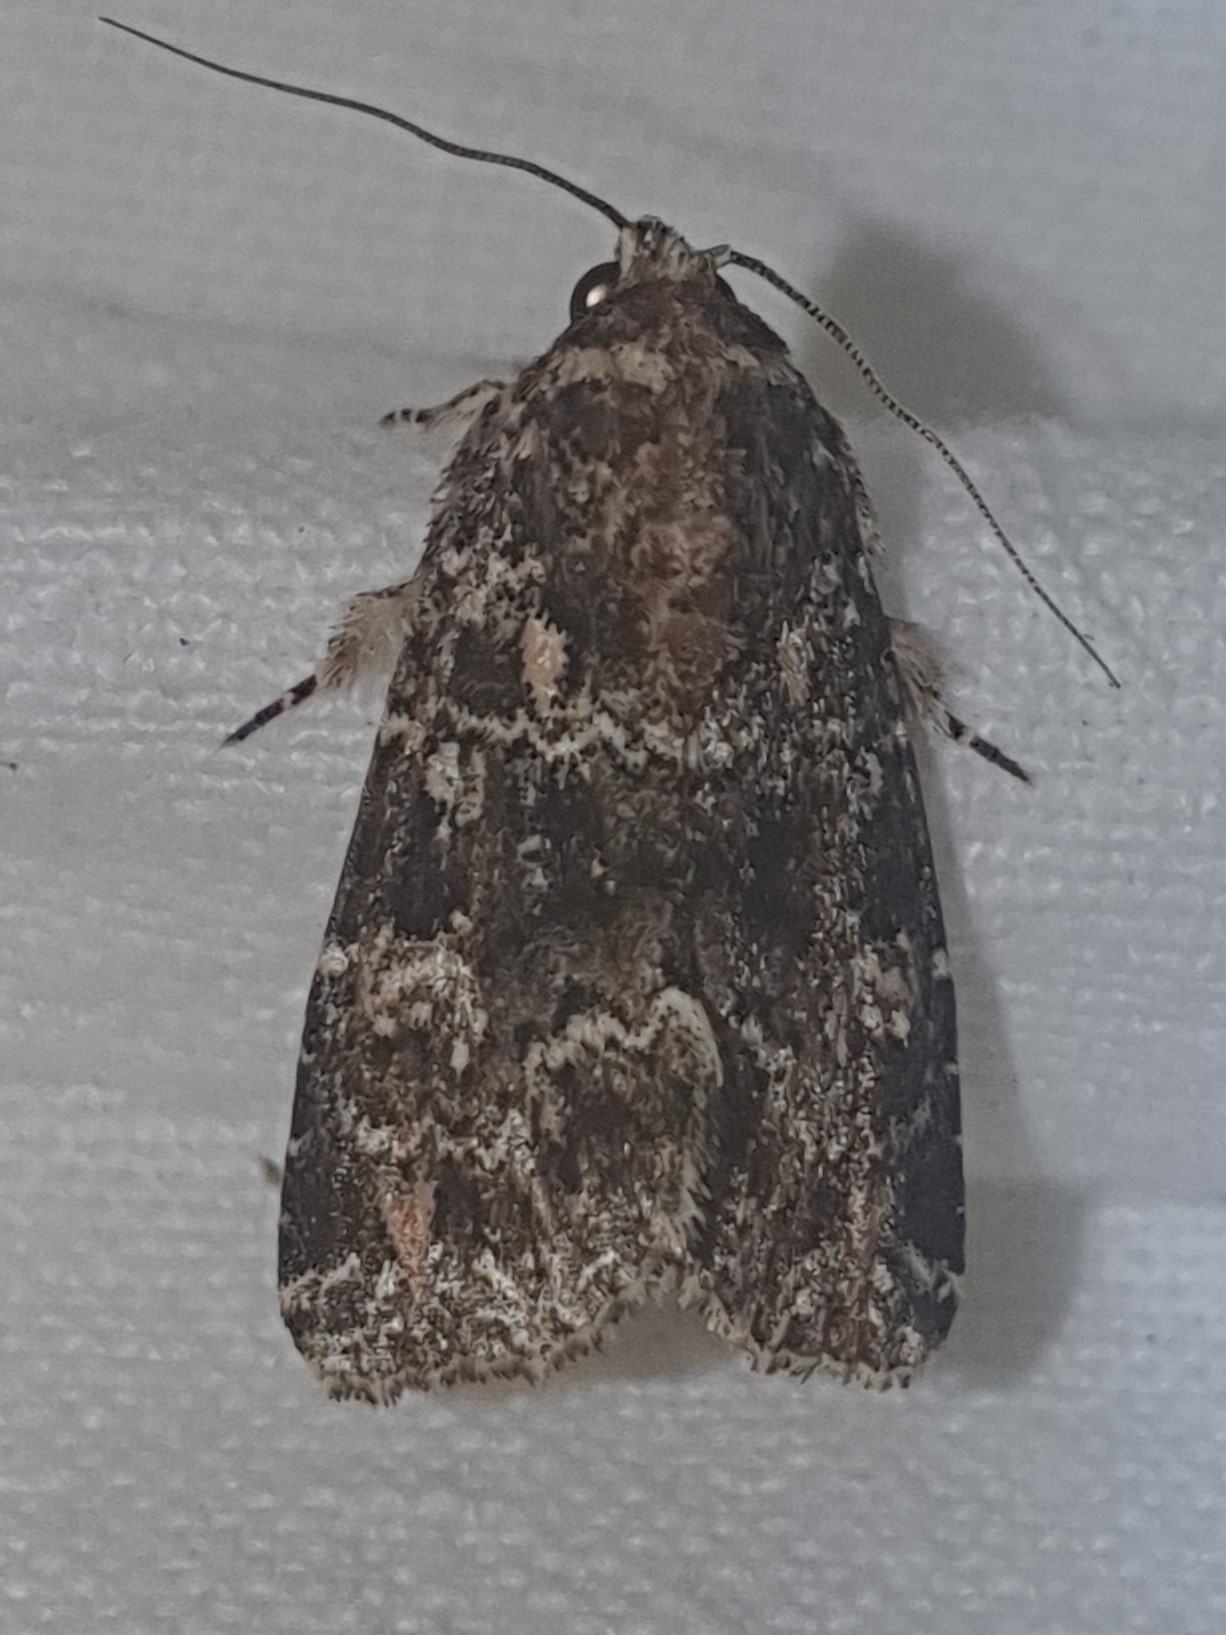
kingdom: Animalia
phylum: Arthropoda
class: Insecta
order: Lepidoptera
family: Noctuidae
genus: Callopistria
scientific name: Callopistria latreillei
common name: Latreille's latin
